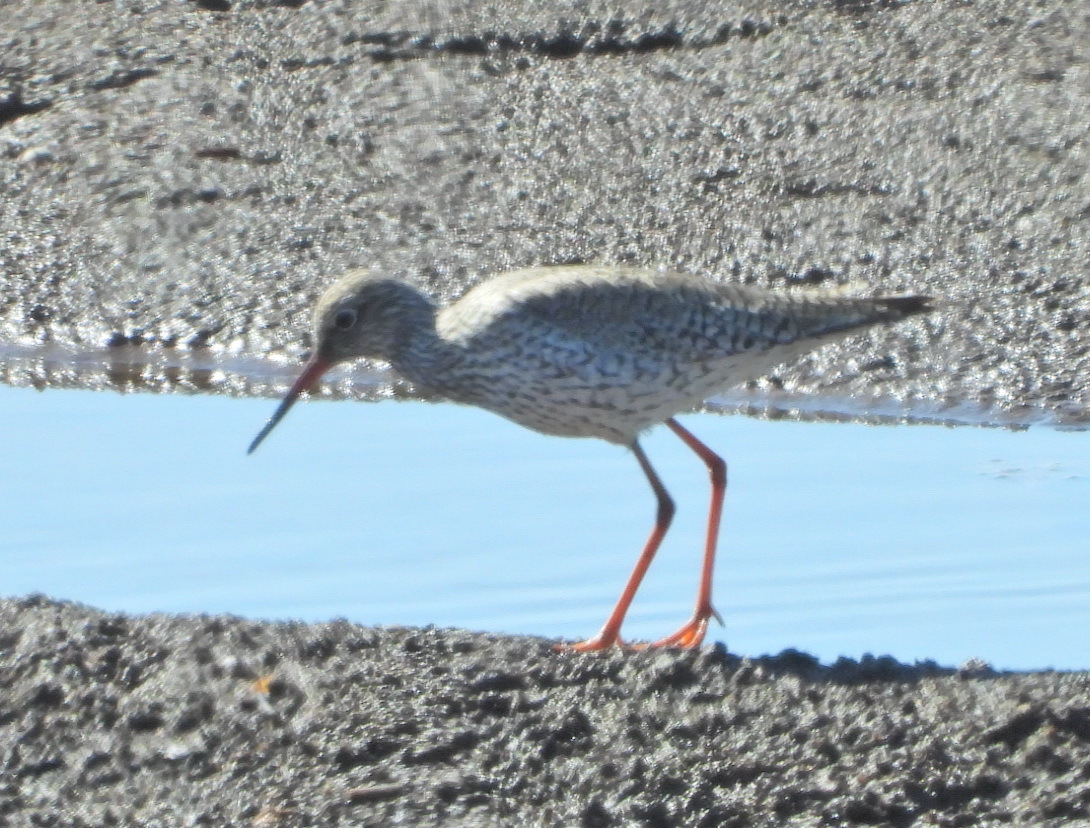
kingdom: Animalia
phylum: Chordata
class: Aves
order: Charadriiformes
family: Scolopacidae
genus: Tringa
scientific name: Tringa totanus
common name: Common redshank
